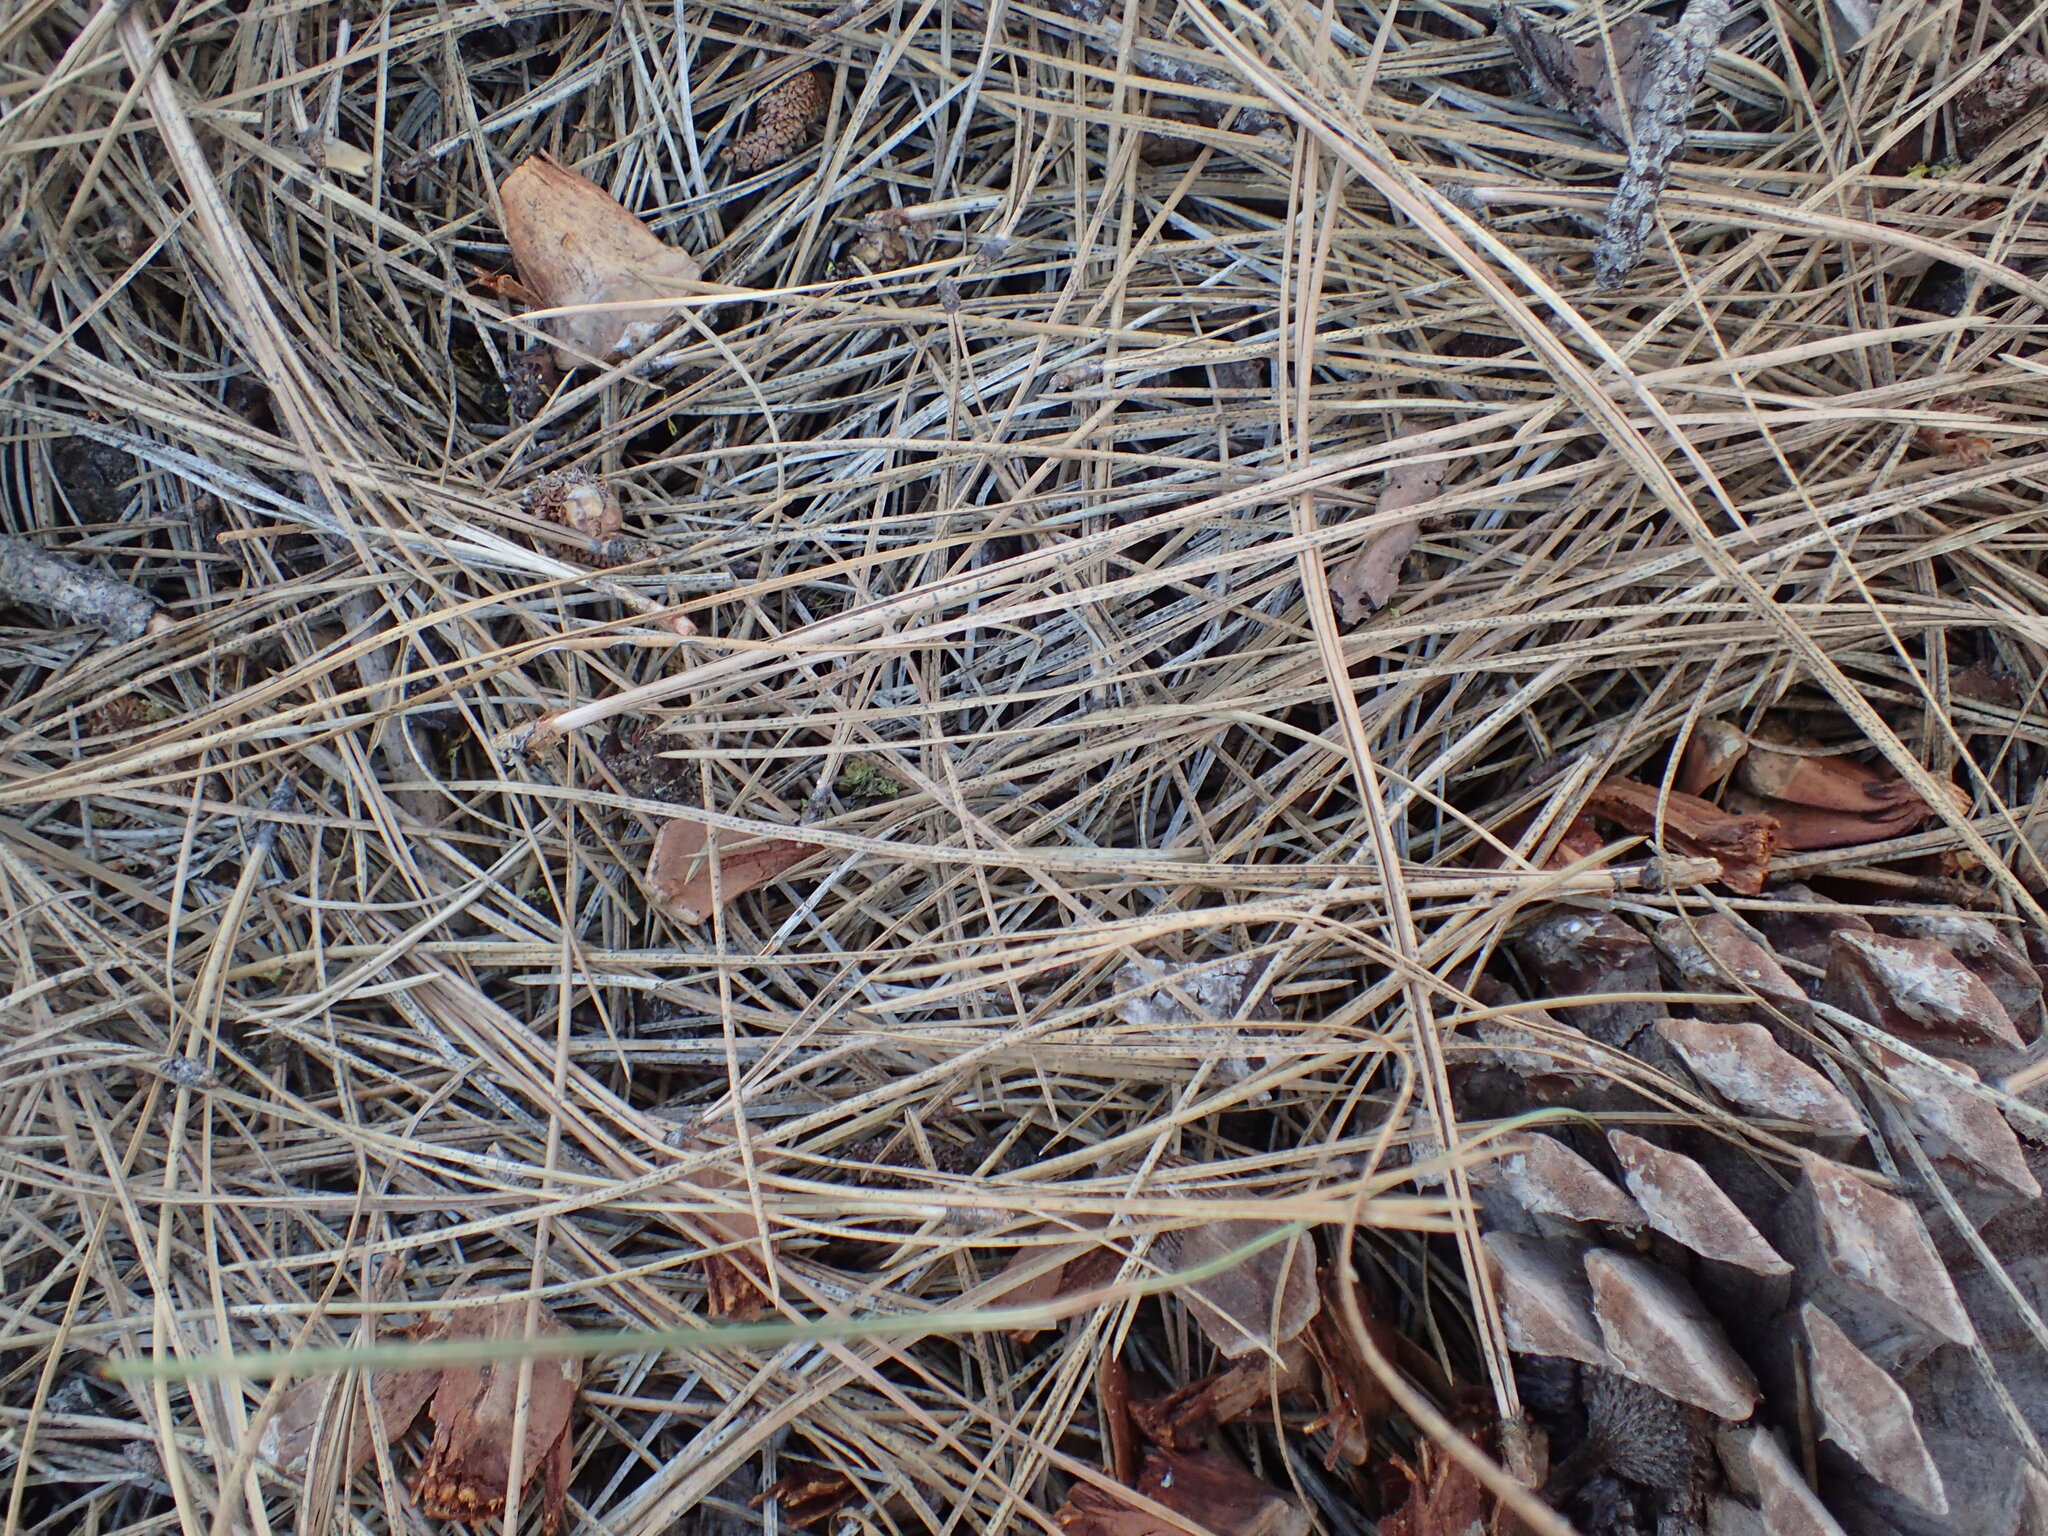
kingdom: Fungi
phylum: Ascomycota
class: Leotiomycetes
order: Rhytismatales
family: Rhytismataceae
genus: Lophodermium
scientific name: Lophodermium pinastri
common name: Pine needle split
